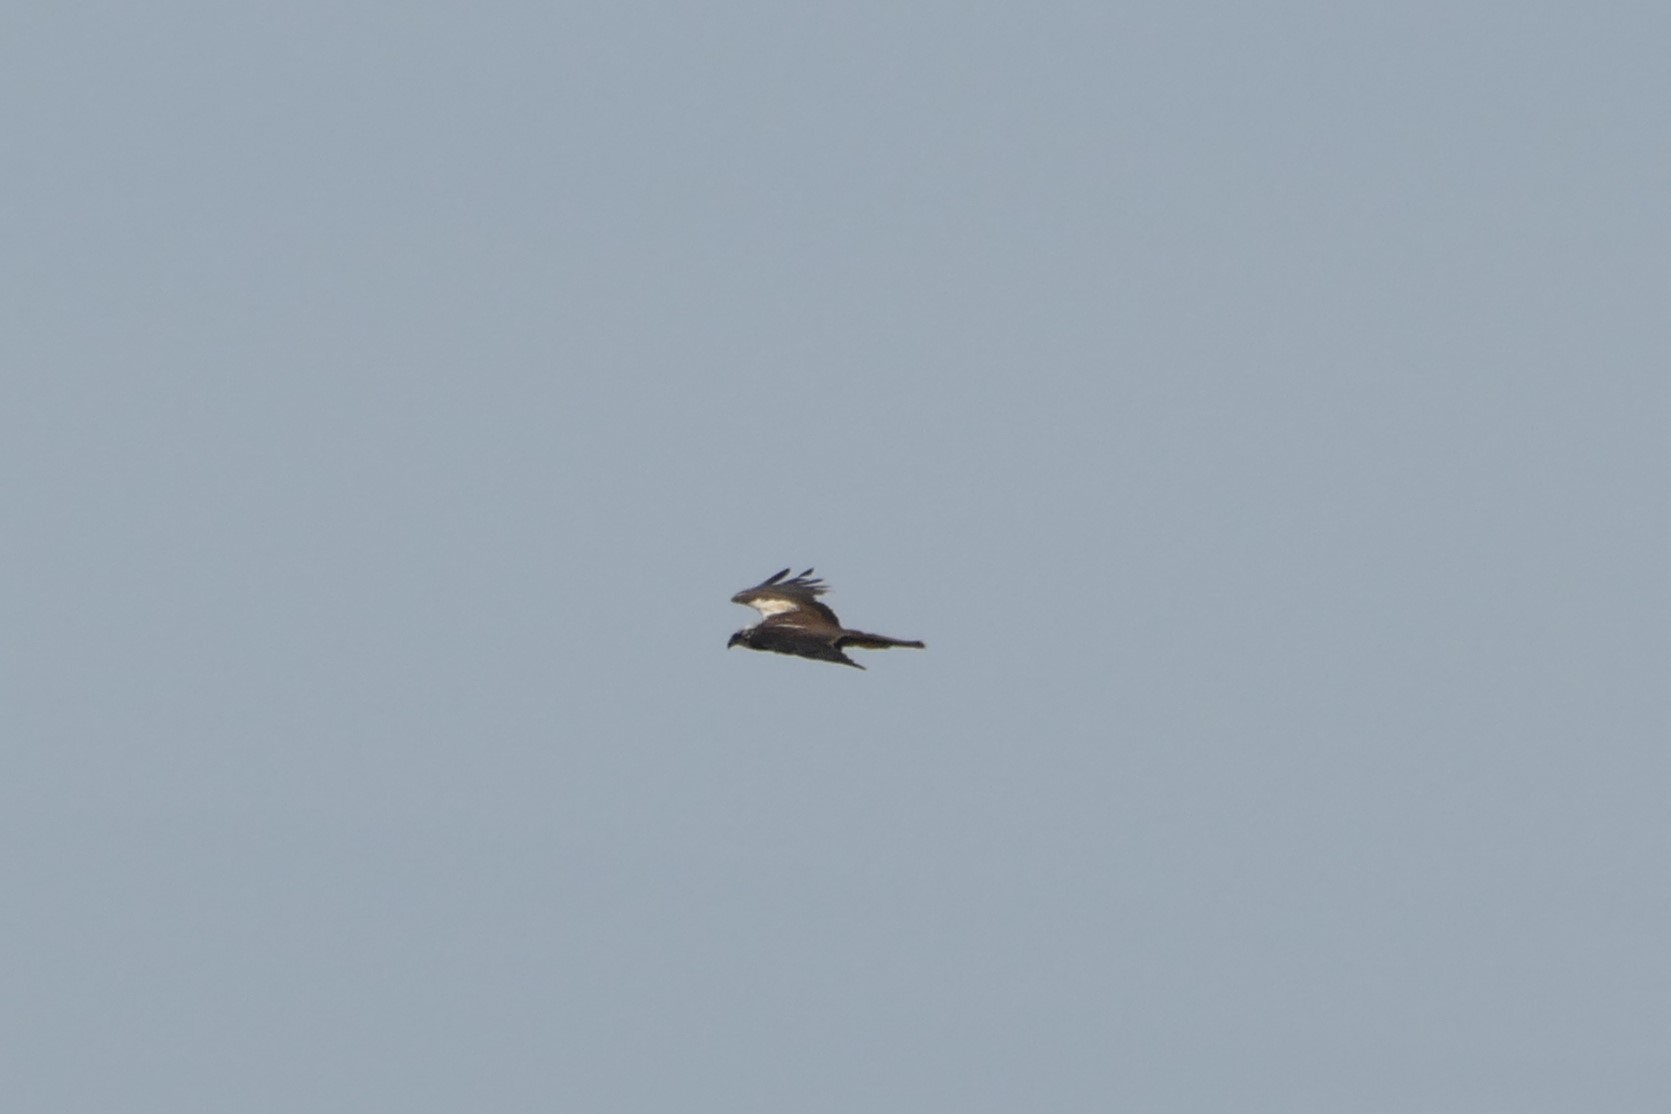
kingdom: Animalia
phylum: Chordata
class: Aves
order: Accipitriformes
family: Accipitridae
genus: Circus
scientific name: Circus aeruginosus
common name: Western marsh harrier
